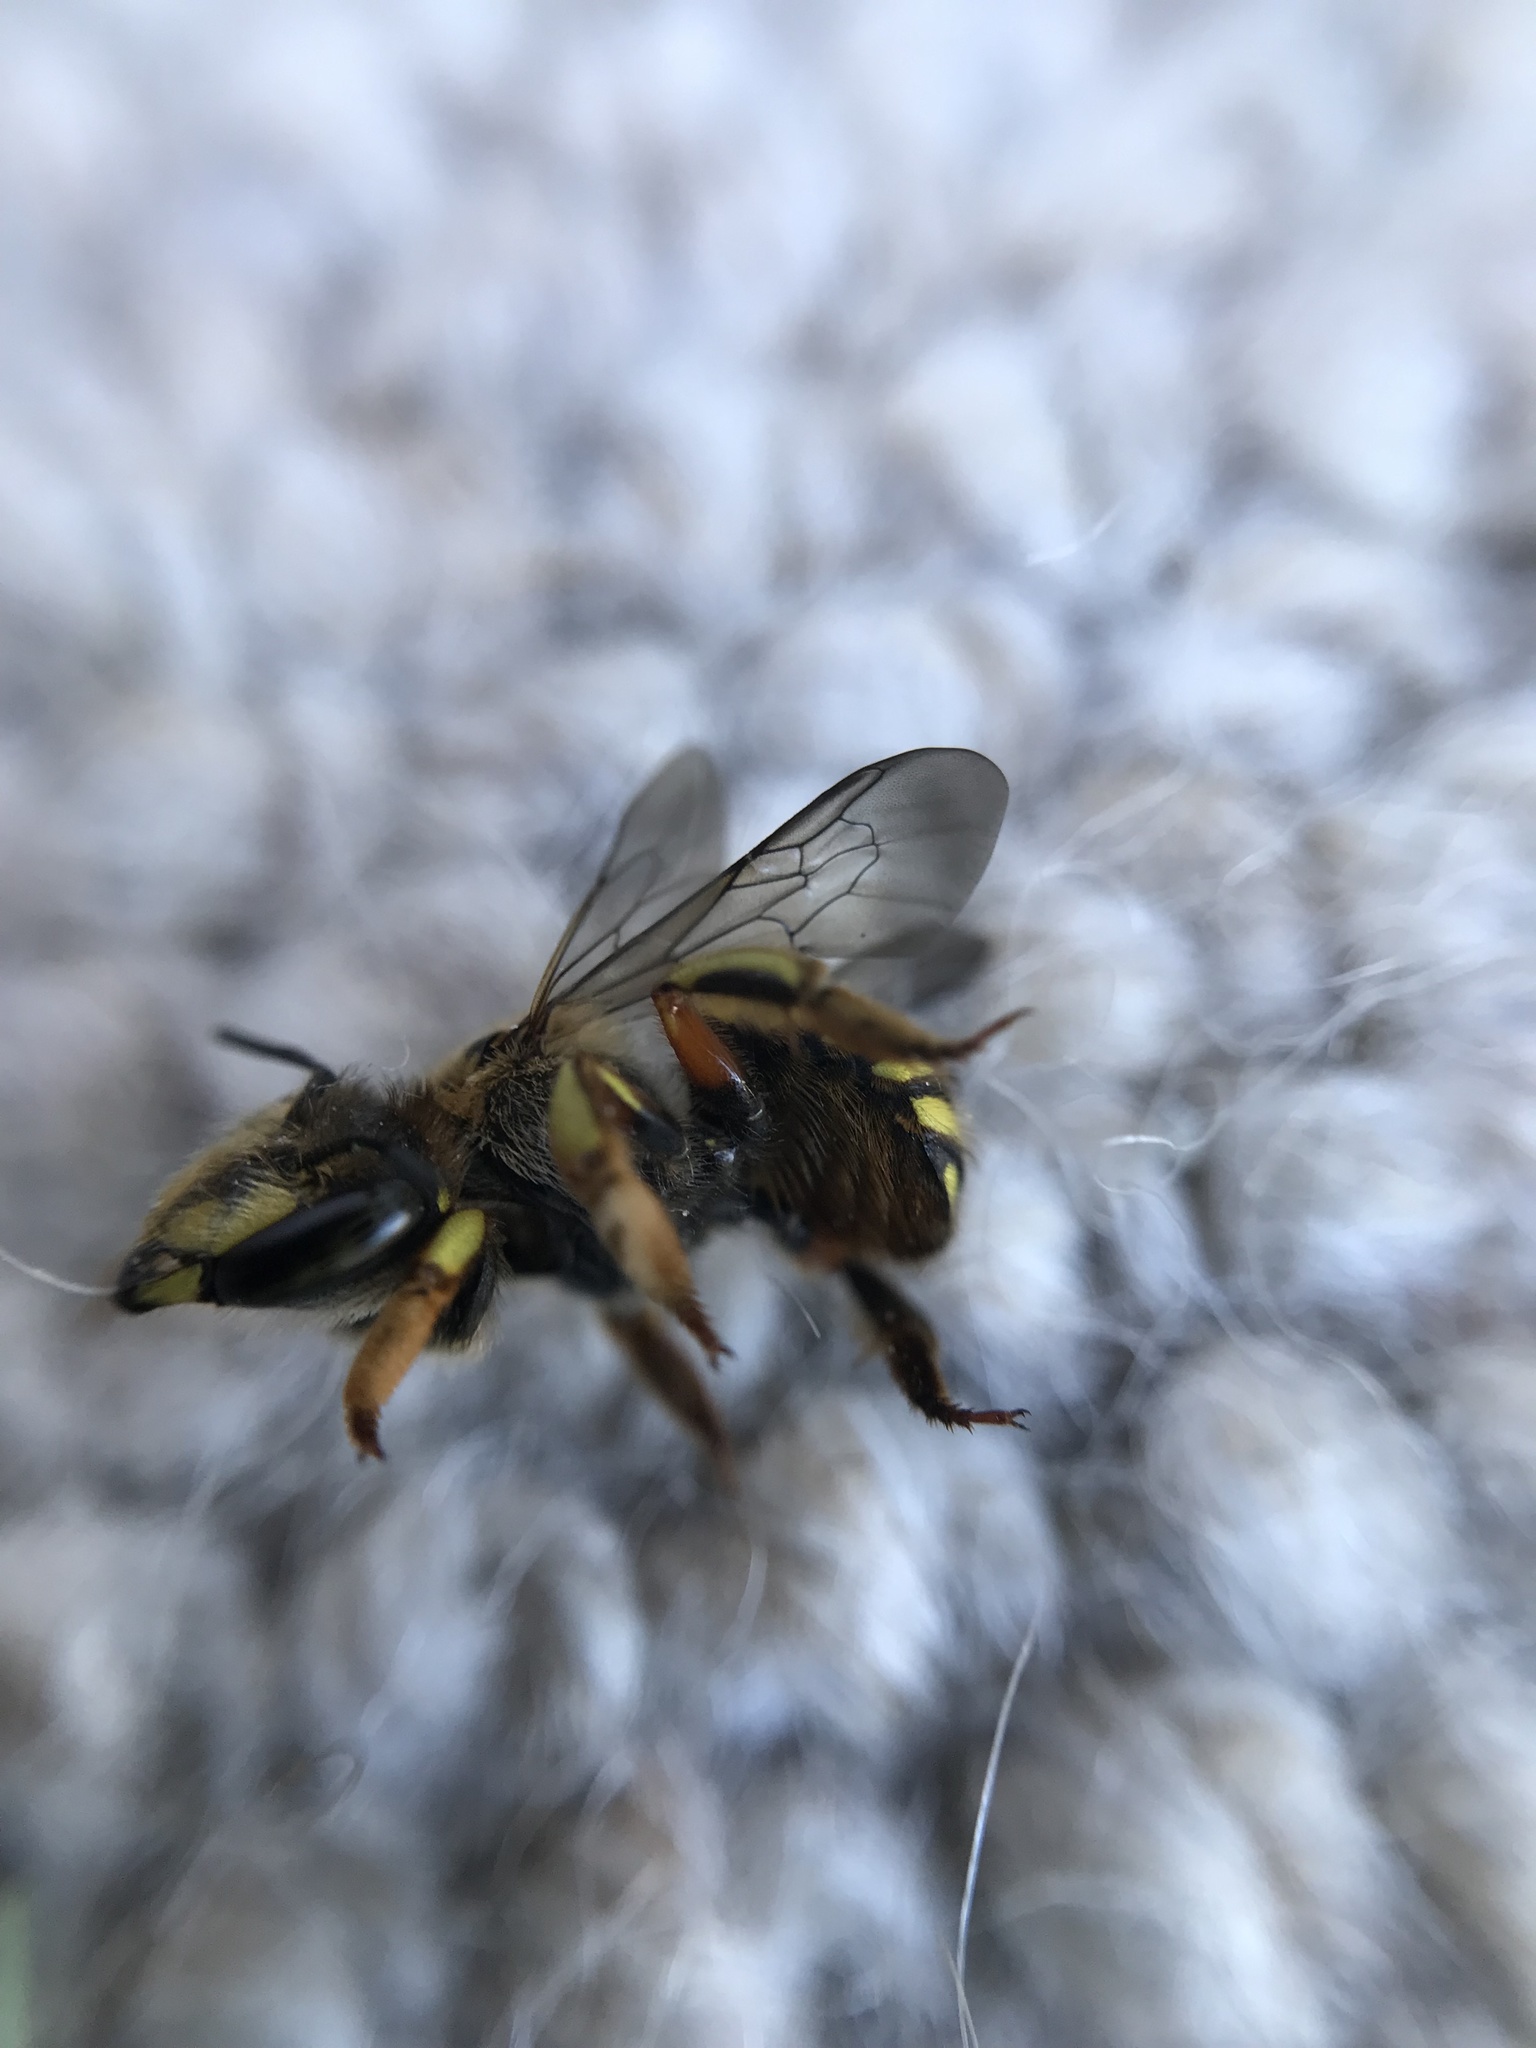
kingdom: Animalia
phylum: Arthropoda
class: Insecta
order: Hymenoptera
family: Megachilidae
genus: Anthidium
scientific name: Anthidium manicatum
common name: Wool carder bee
